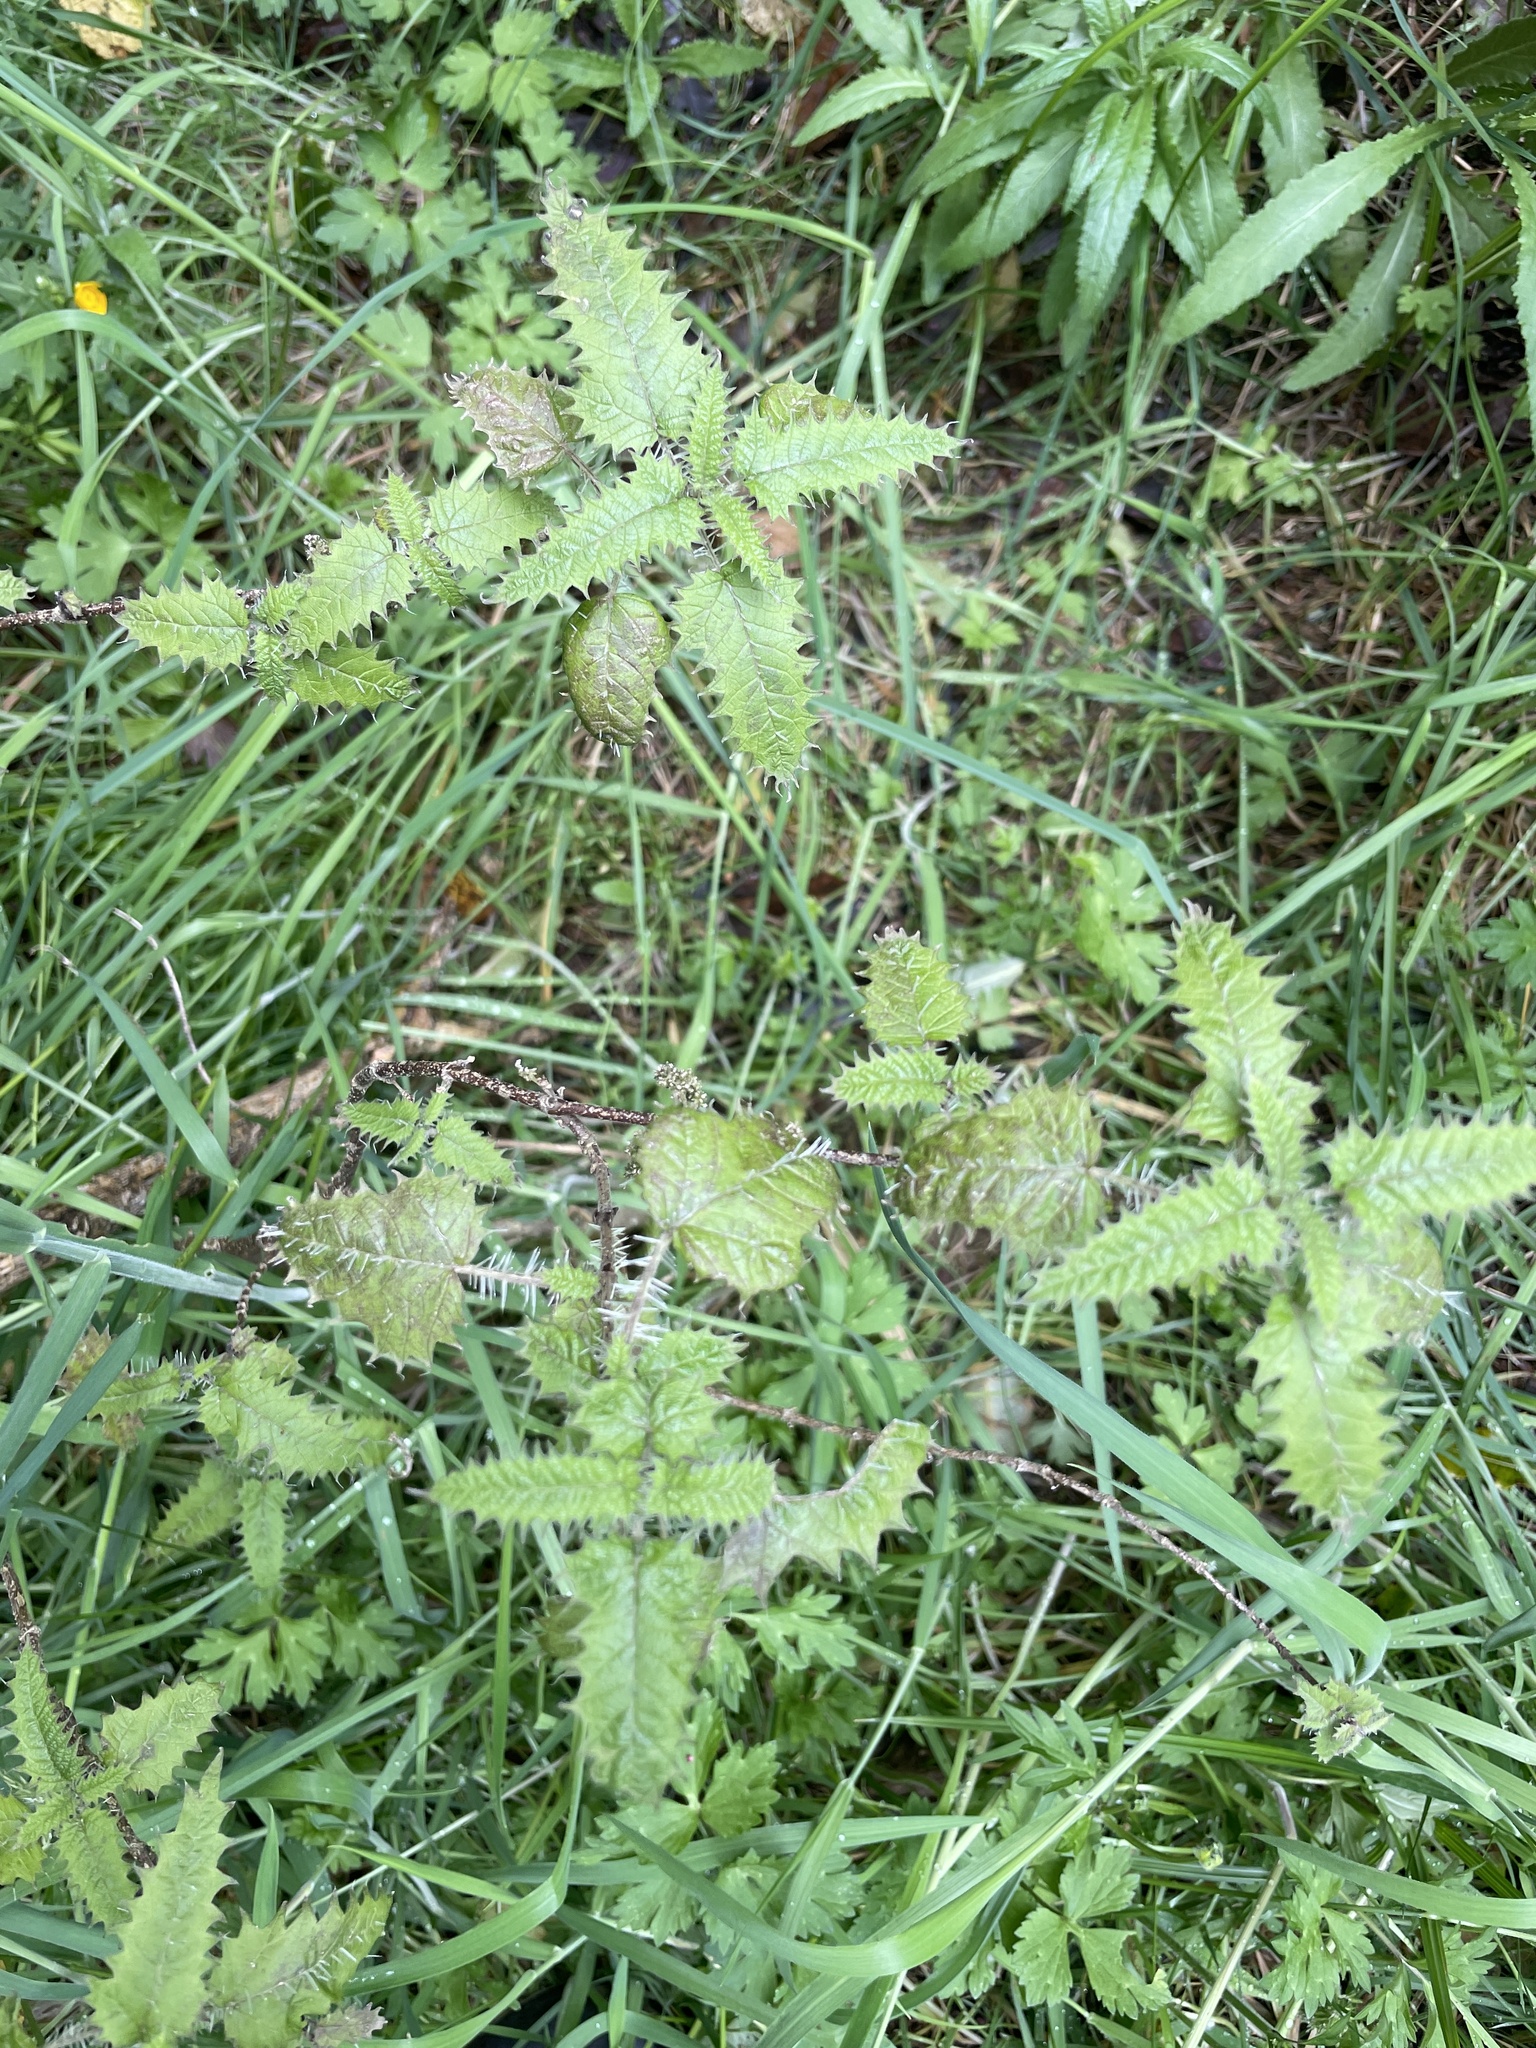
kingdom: Plantae
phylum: Tracheophyta
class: Magnoliopsida
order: Rosales
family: Urticaceae
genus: Urtica
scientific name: Urtica ferox
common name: Tree nettle
